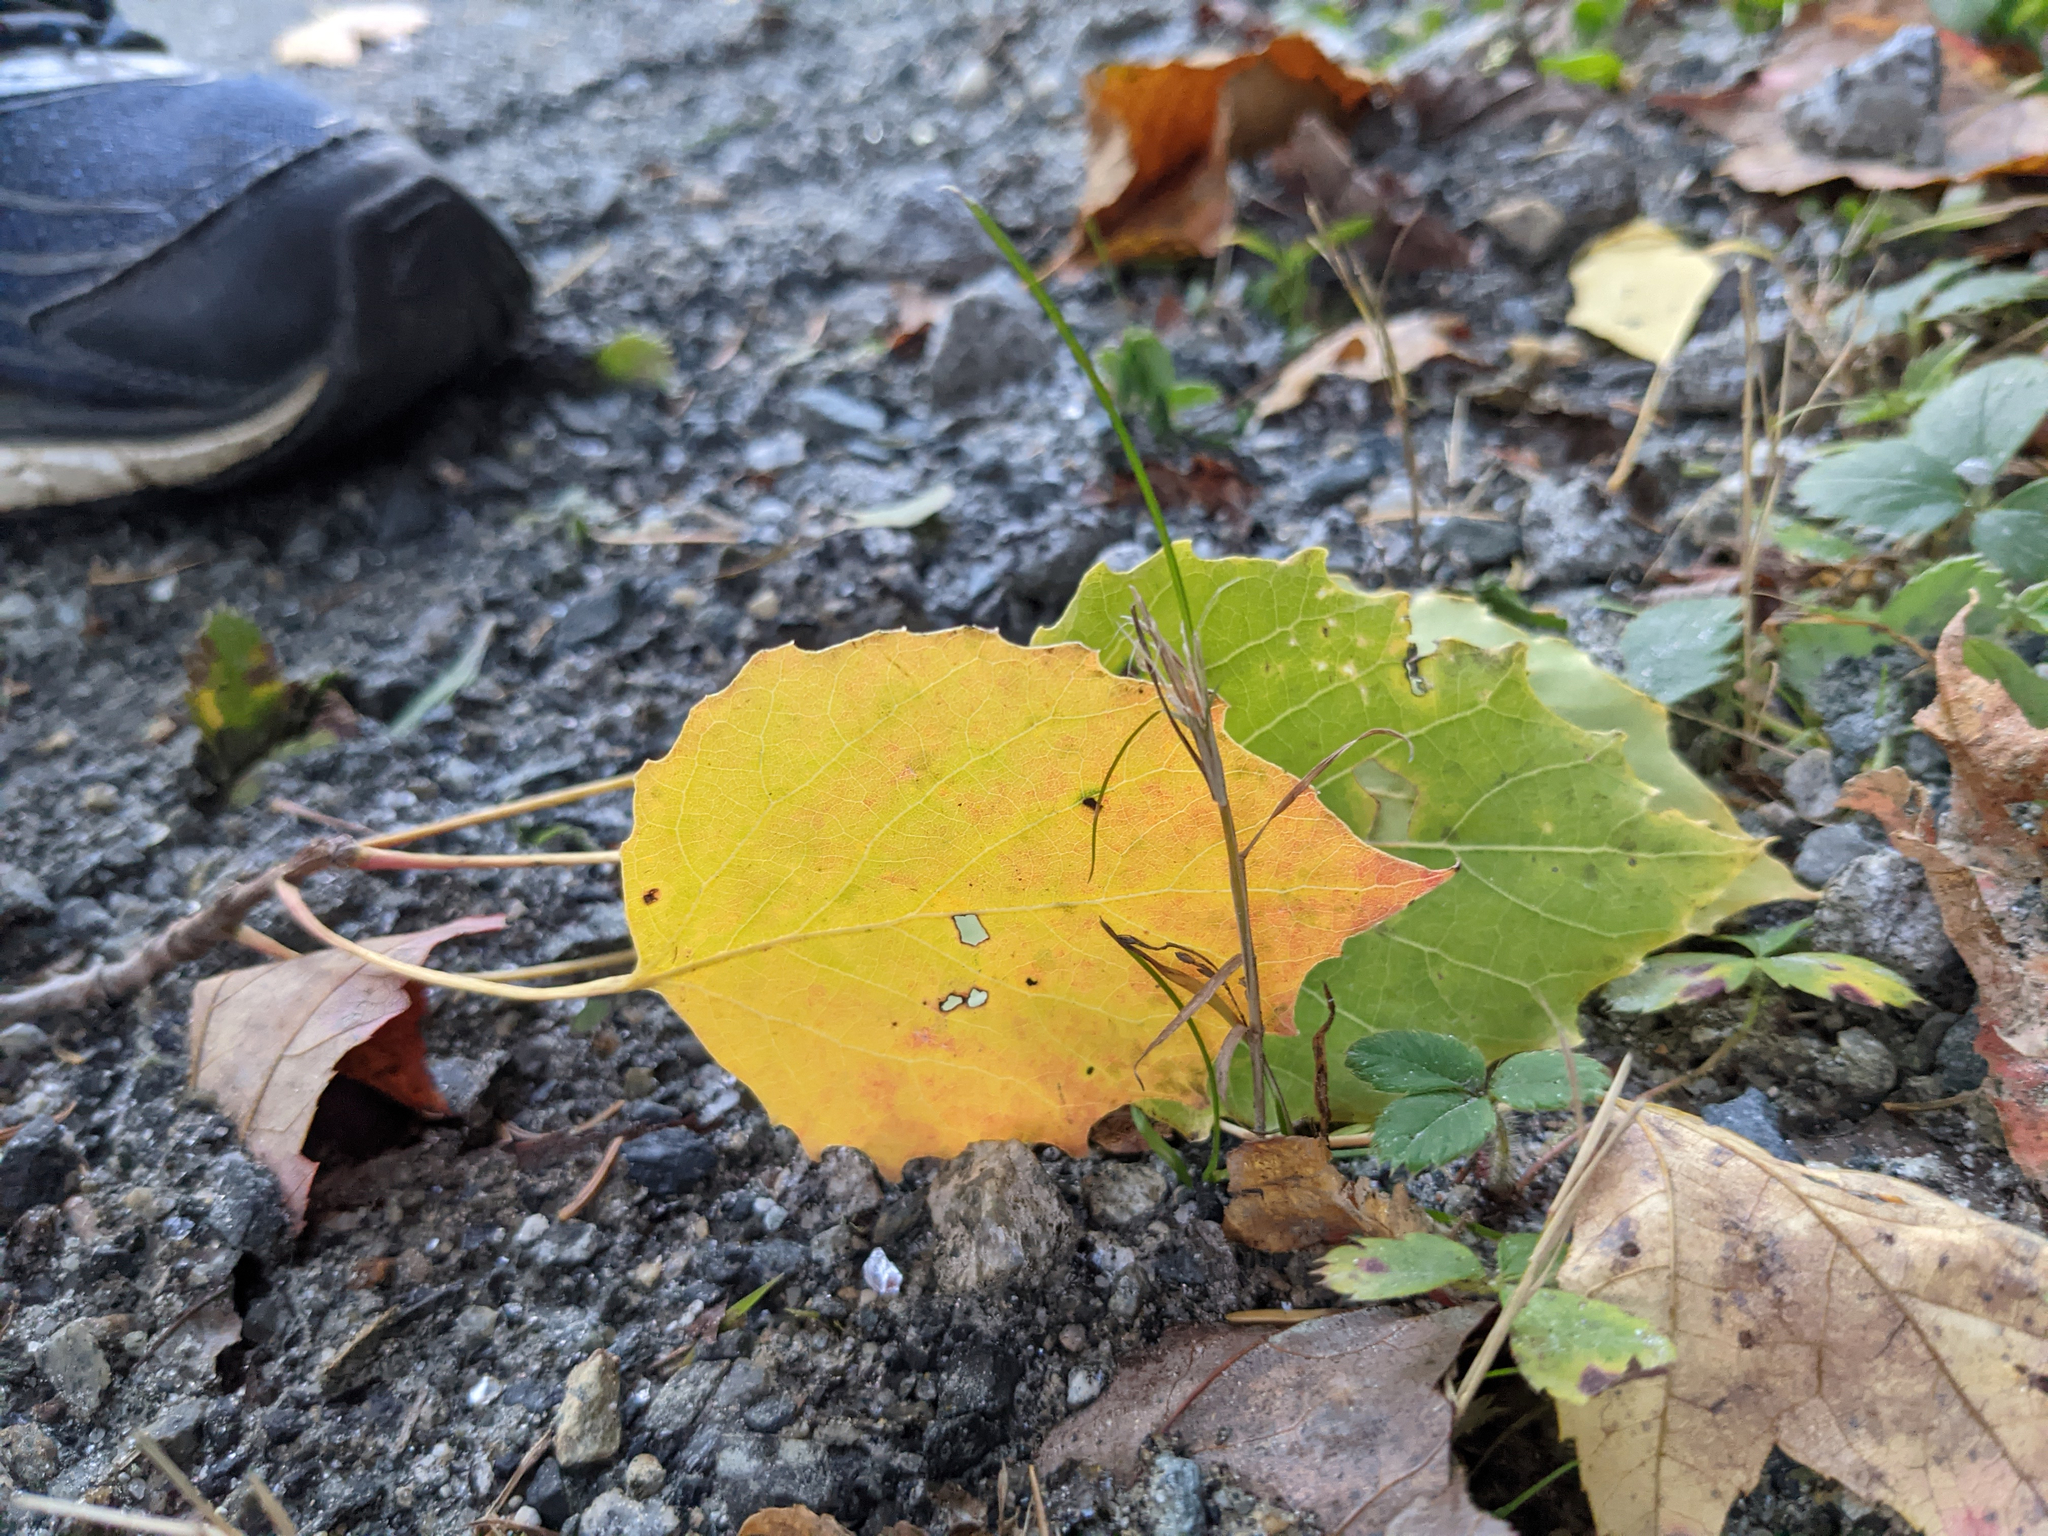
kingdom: Plantae
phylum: Tracheophyta
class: Magnoliopsida
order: Malpighiales
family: Salicaceae
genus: Populus
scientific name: Populus grandidentata
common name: Bigtooth aspen
